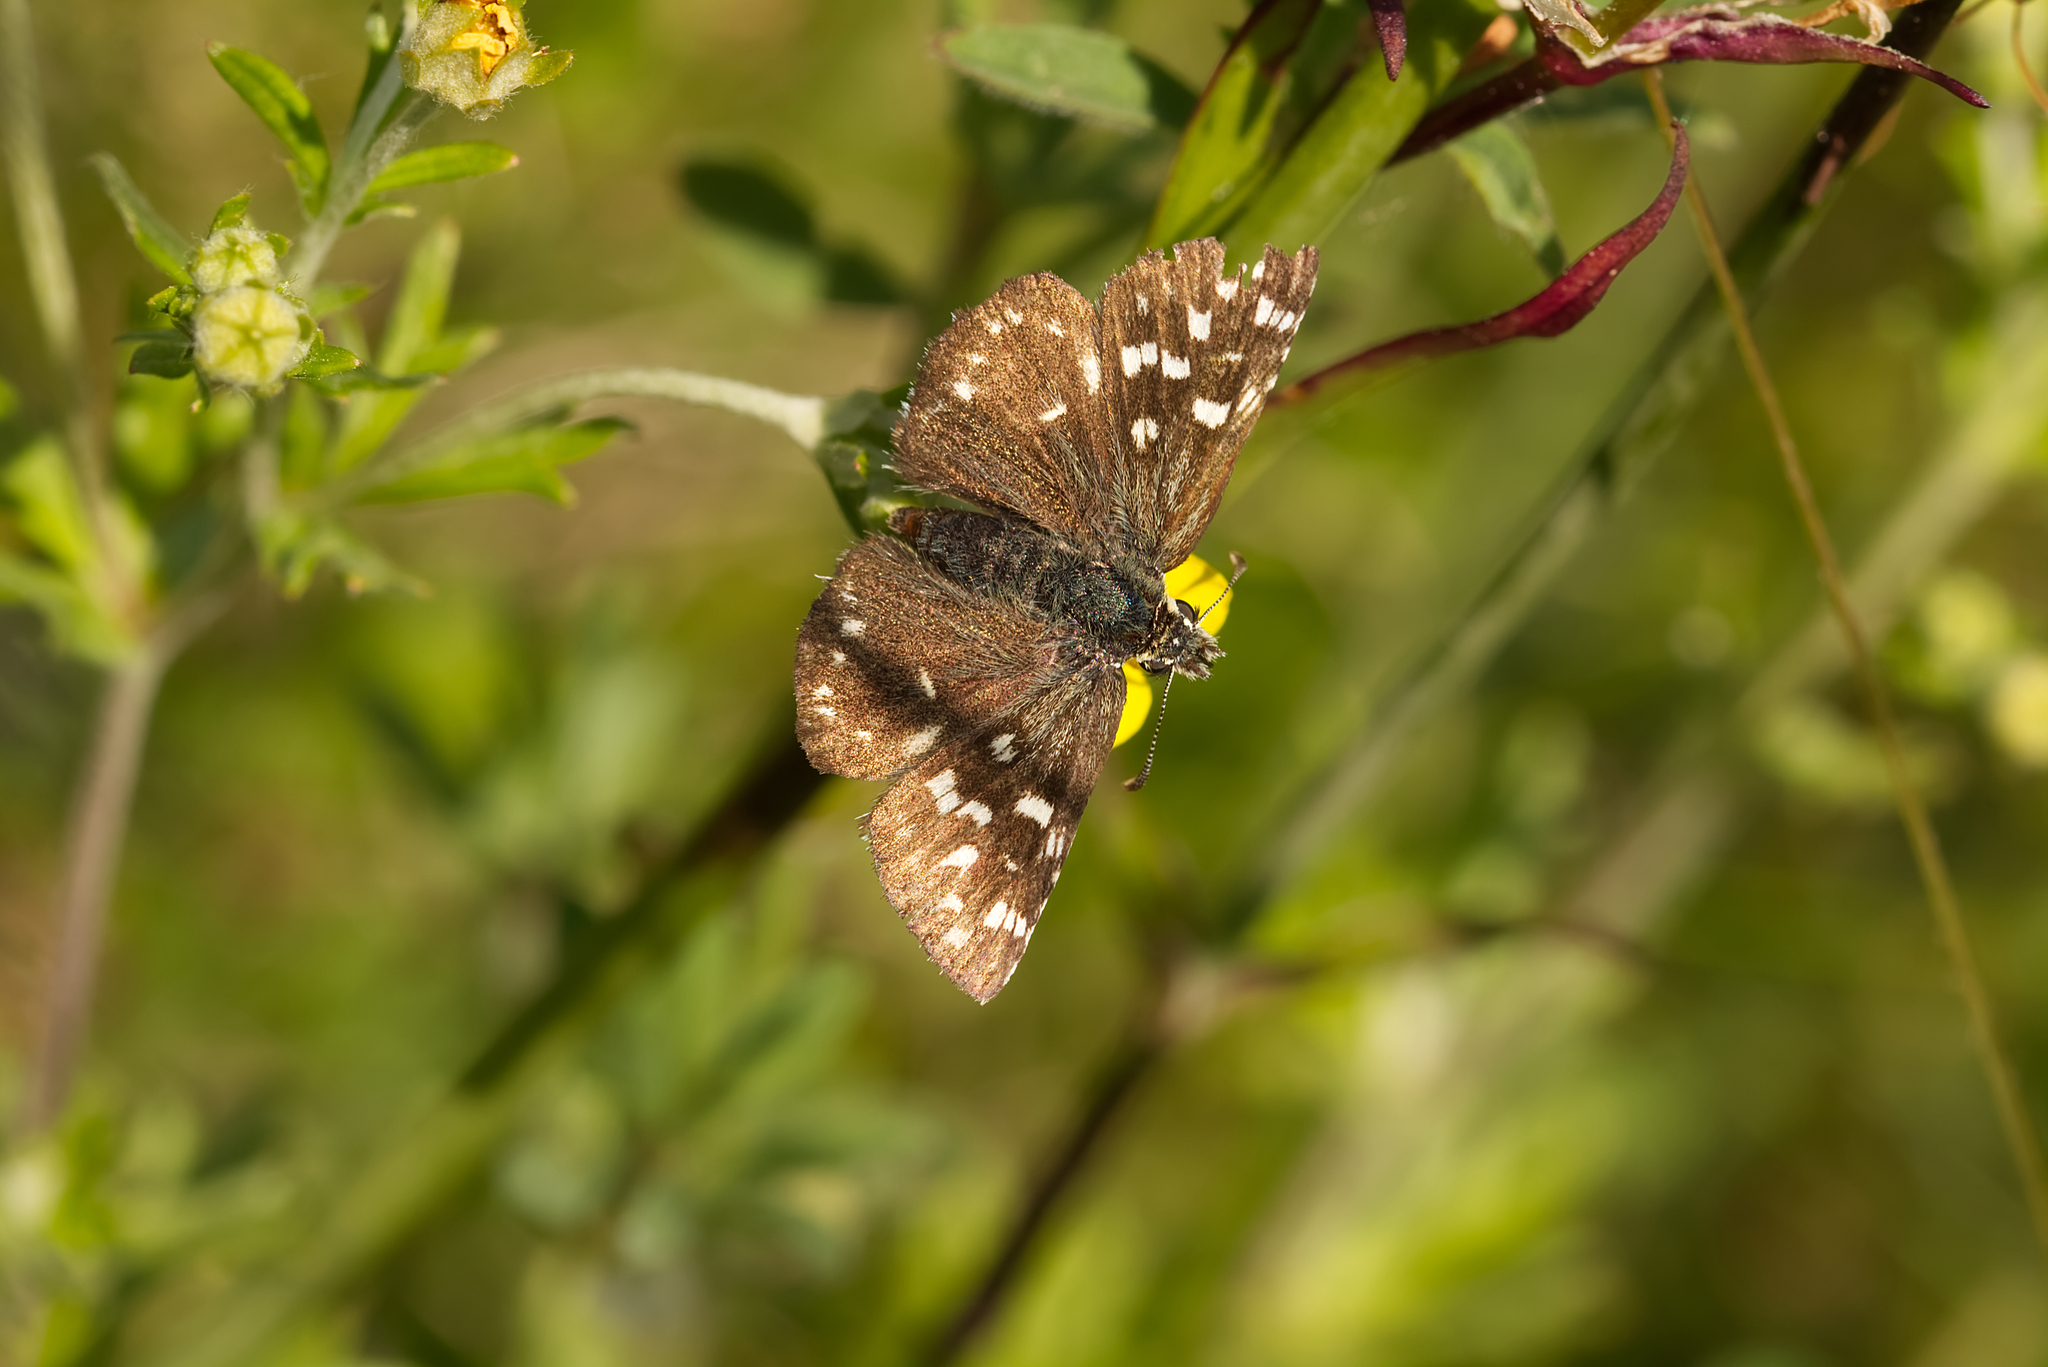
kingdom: Animalia
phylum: Arthropoda
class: Insecta
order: Lepidoptera
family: Hesperiidae
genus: Pyrgus
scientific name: Pyrgus malvae
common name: Grizzled skipper
